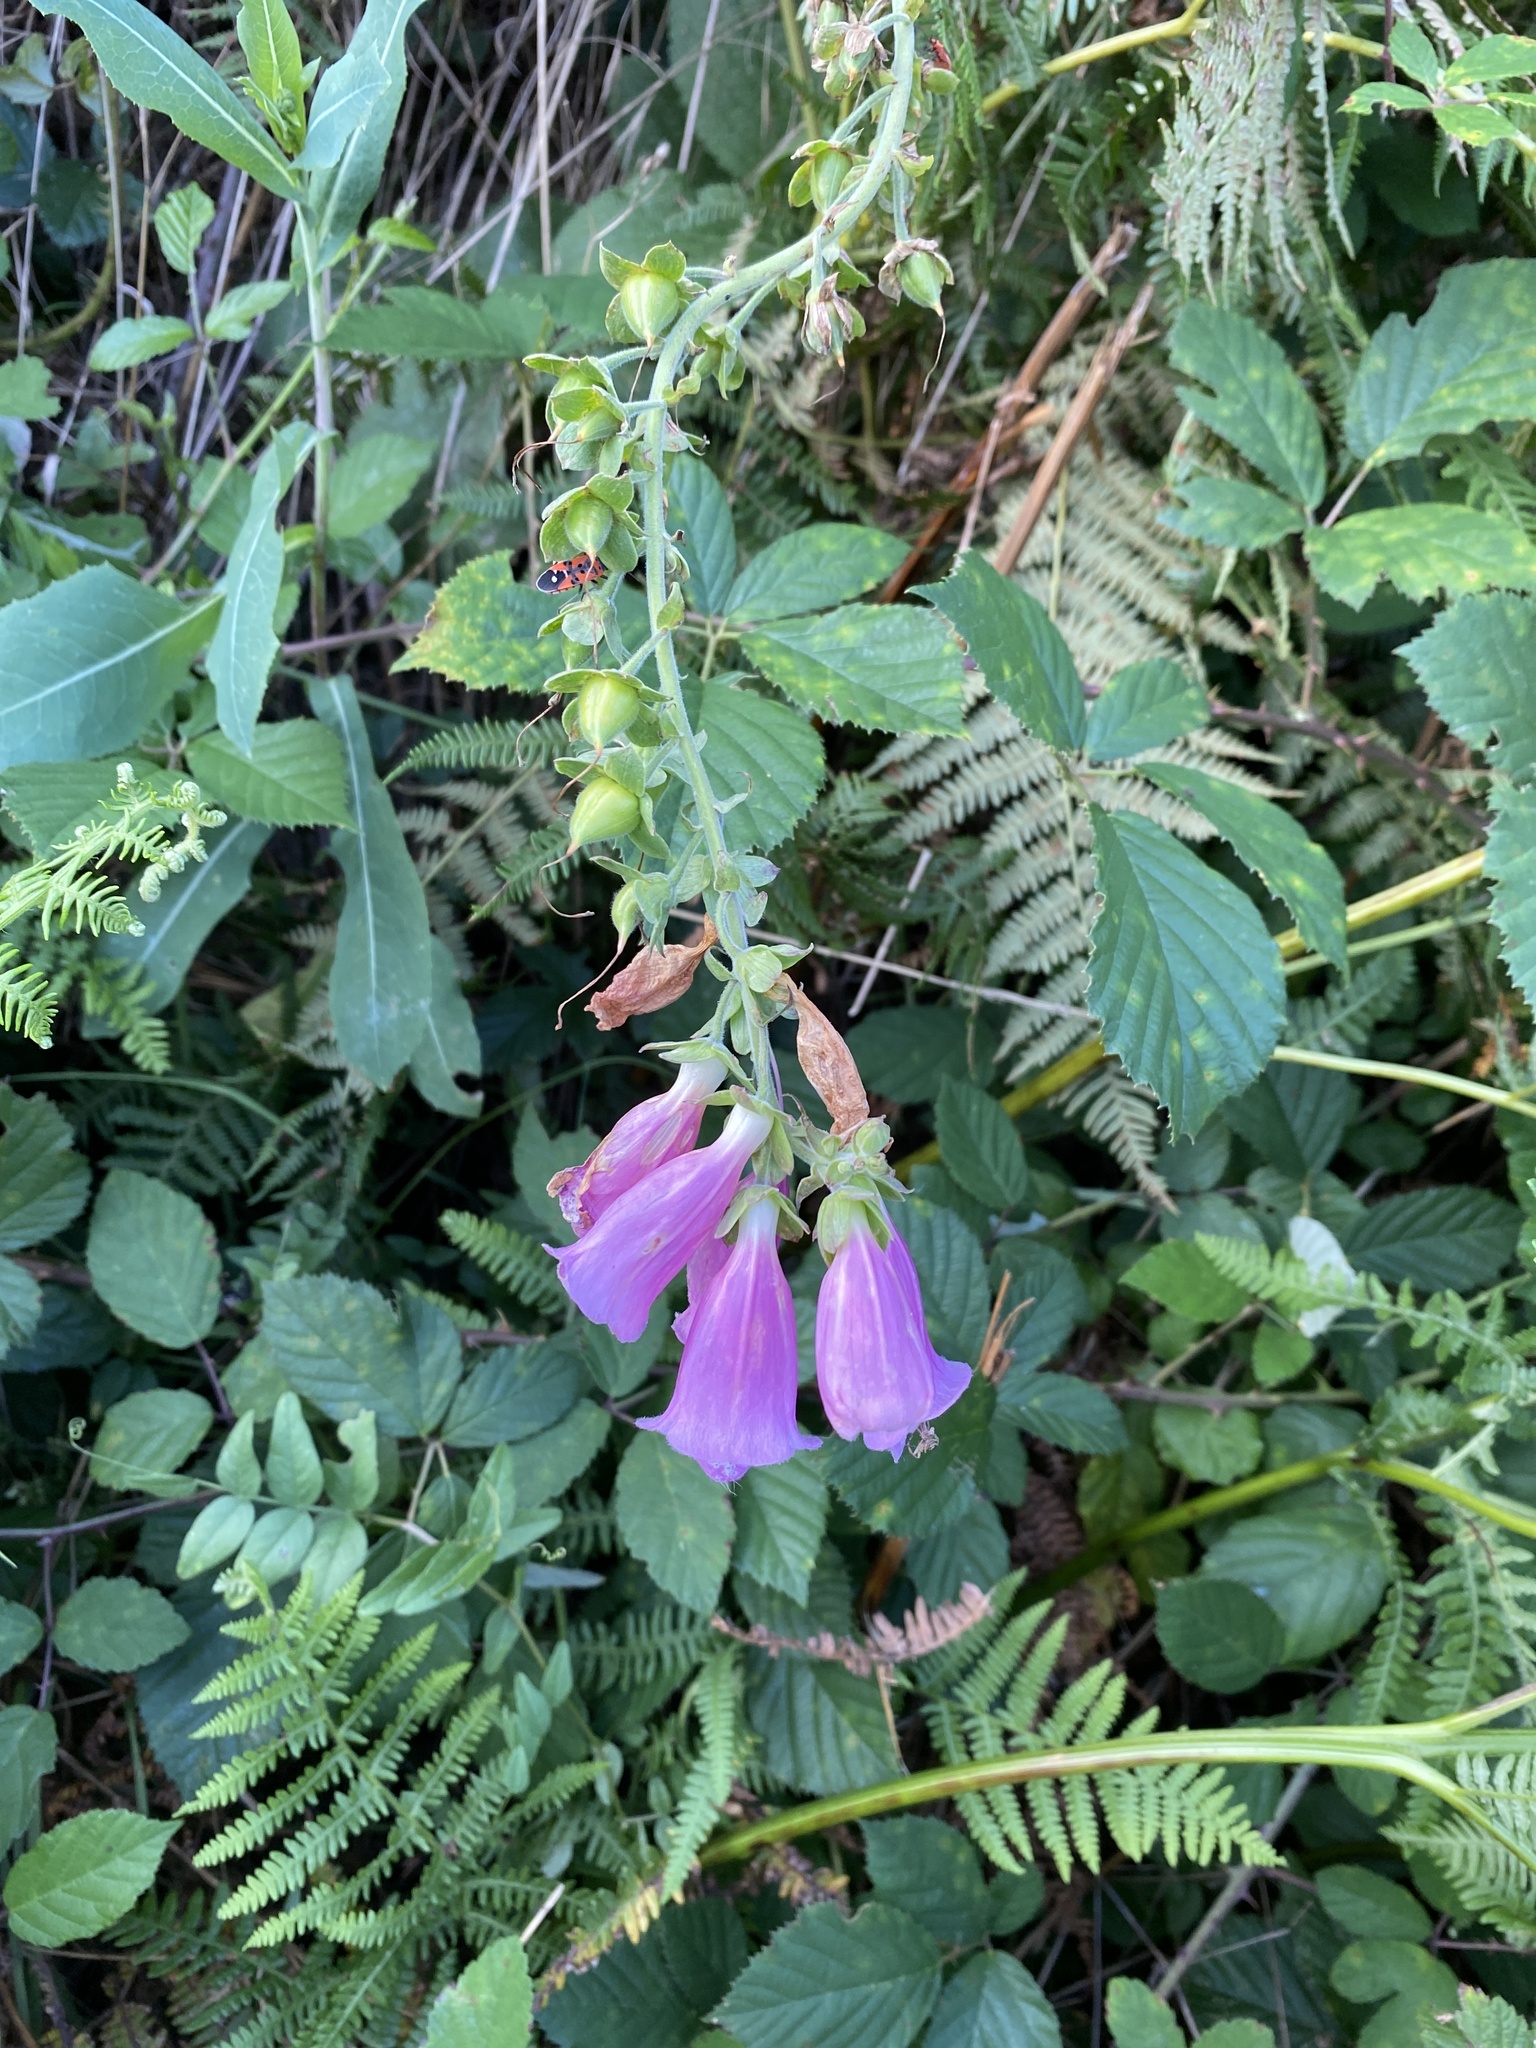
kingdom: Plantae
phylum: Tracheophyta
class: Magnoliopsida
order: Lamiales
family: Plantaginaceae
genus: Digitalis
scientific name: Digitalis purpurea
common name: Foxglove
